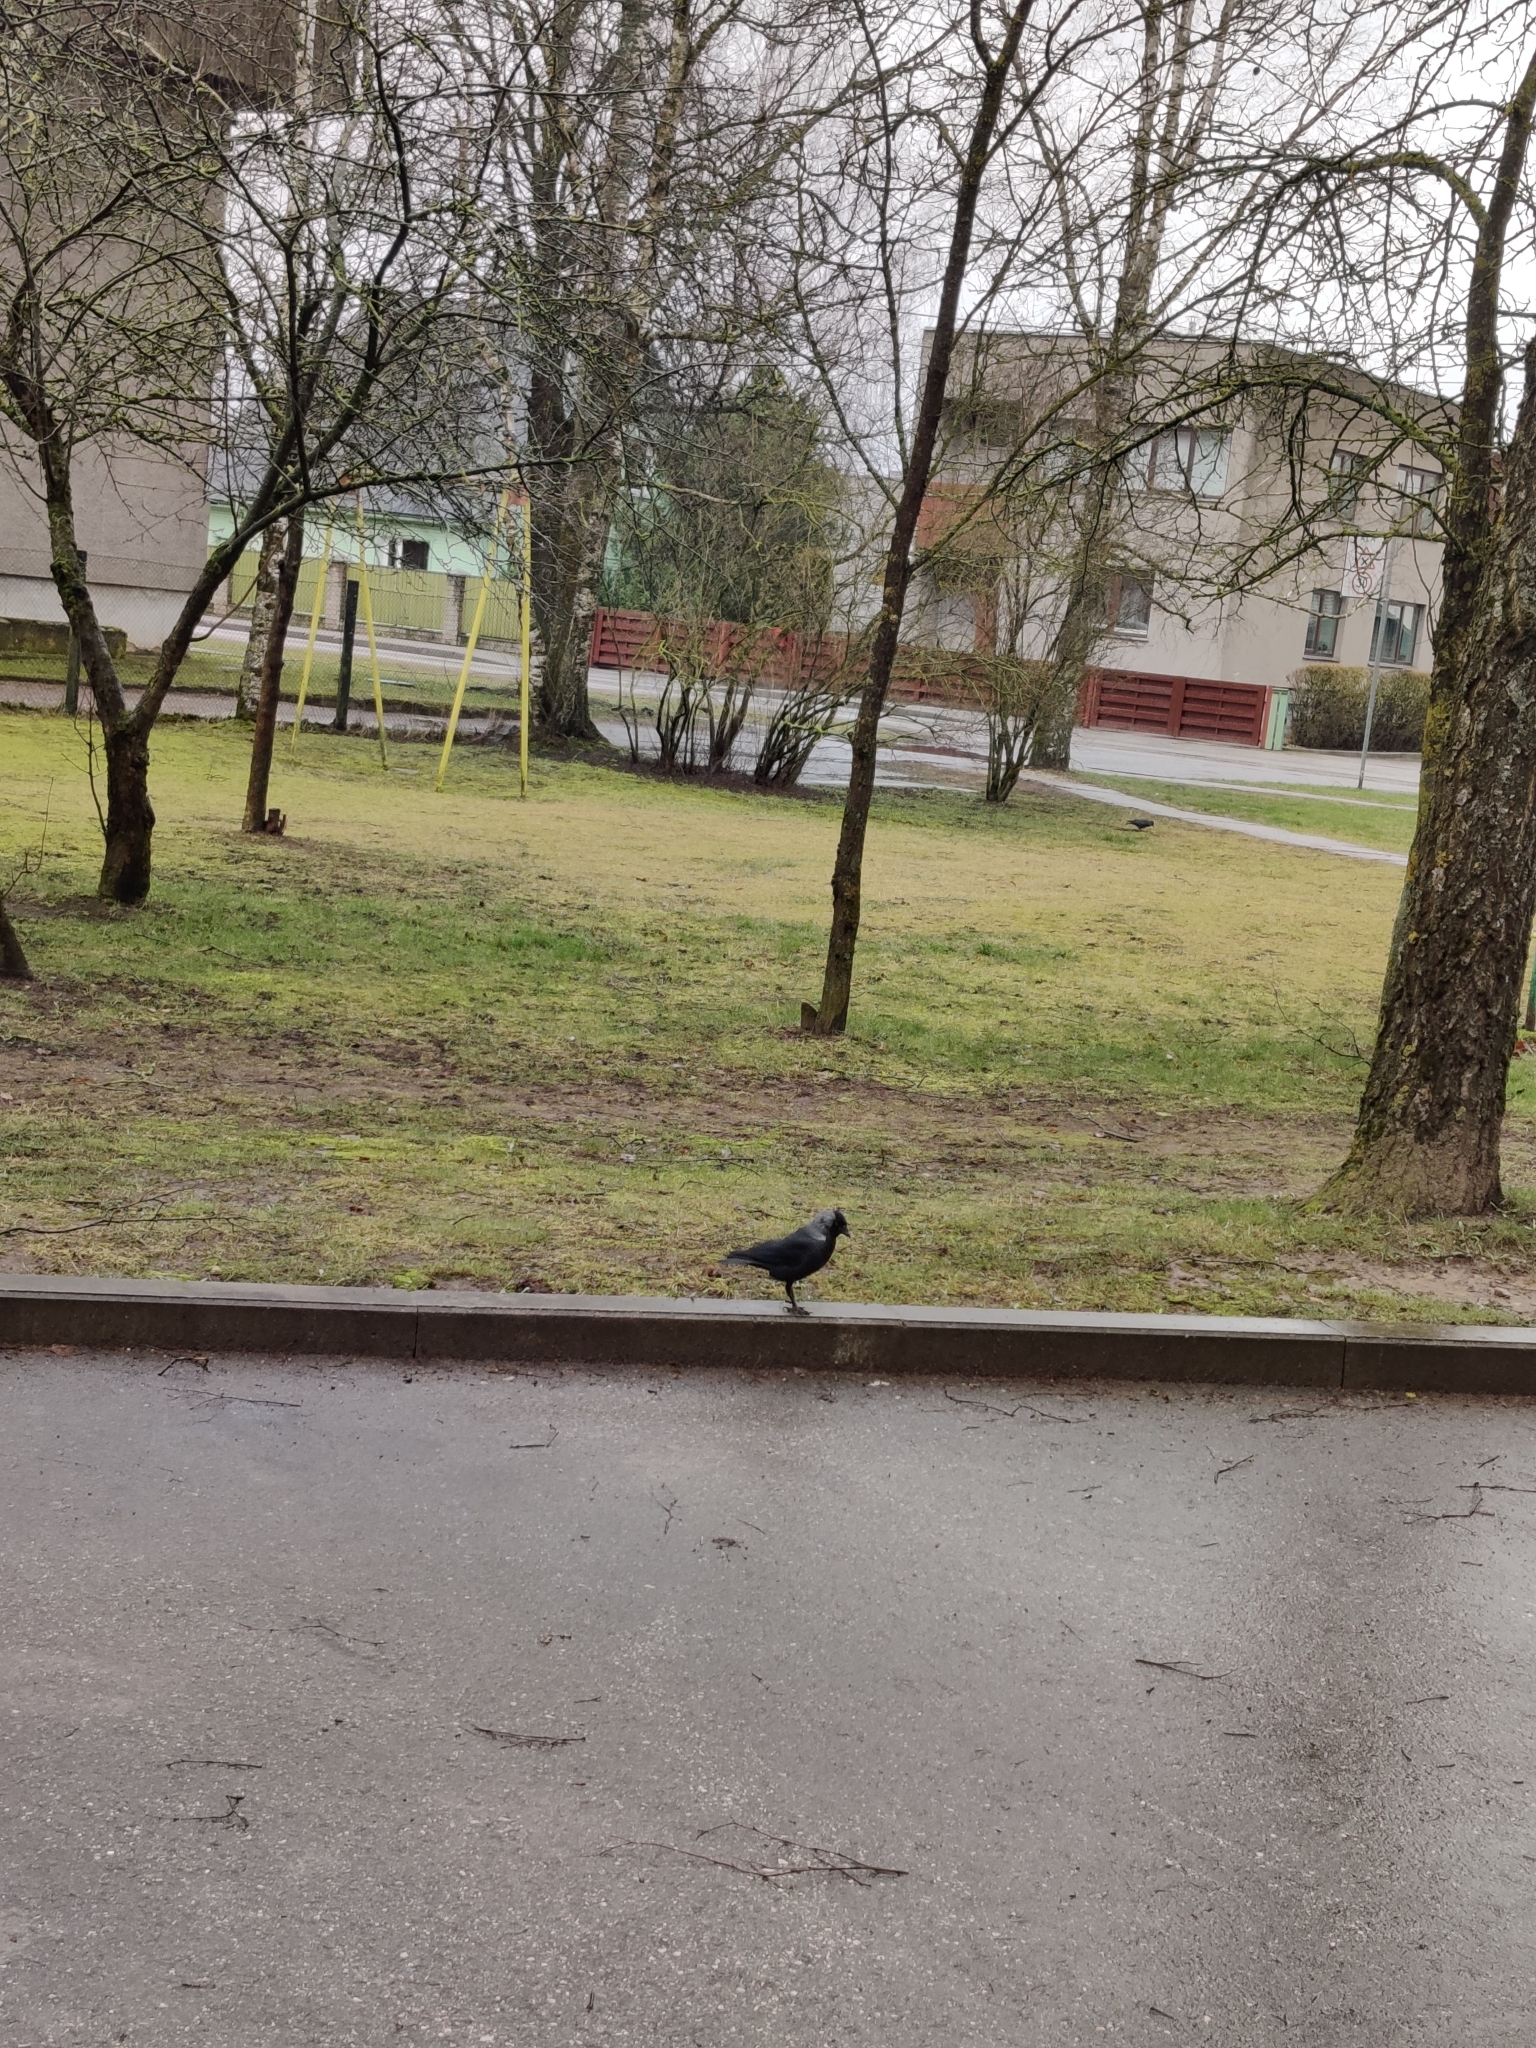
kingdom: Animalia
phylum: Chordata
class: Aves
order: Passeriformes
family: Corvidae
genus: Coloeus
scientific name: Coloeus monedula
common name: Western jackdaw
